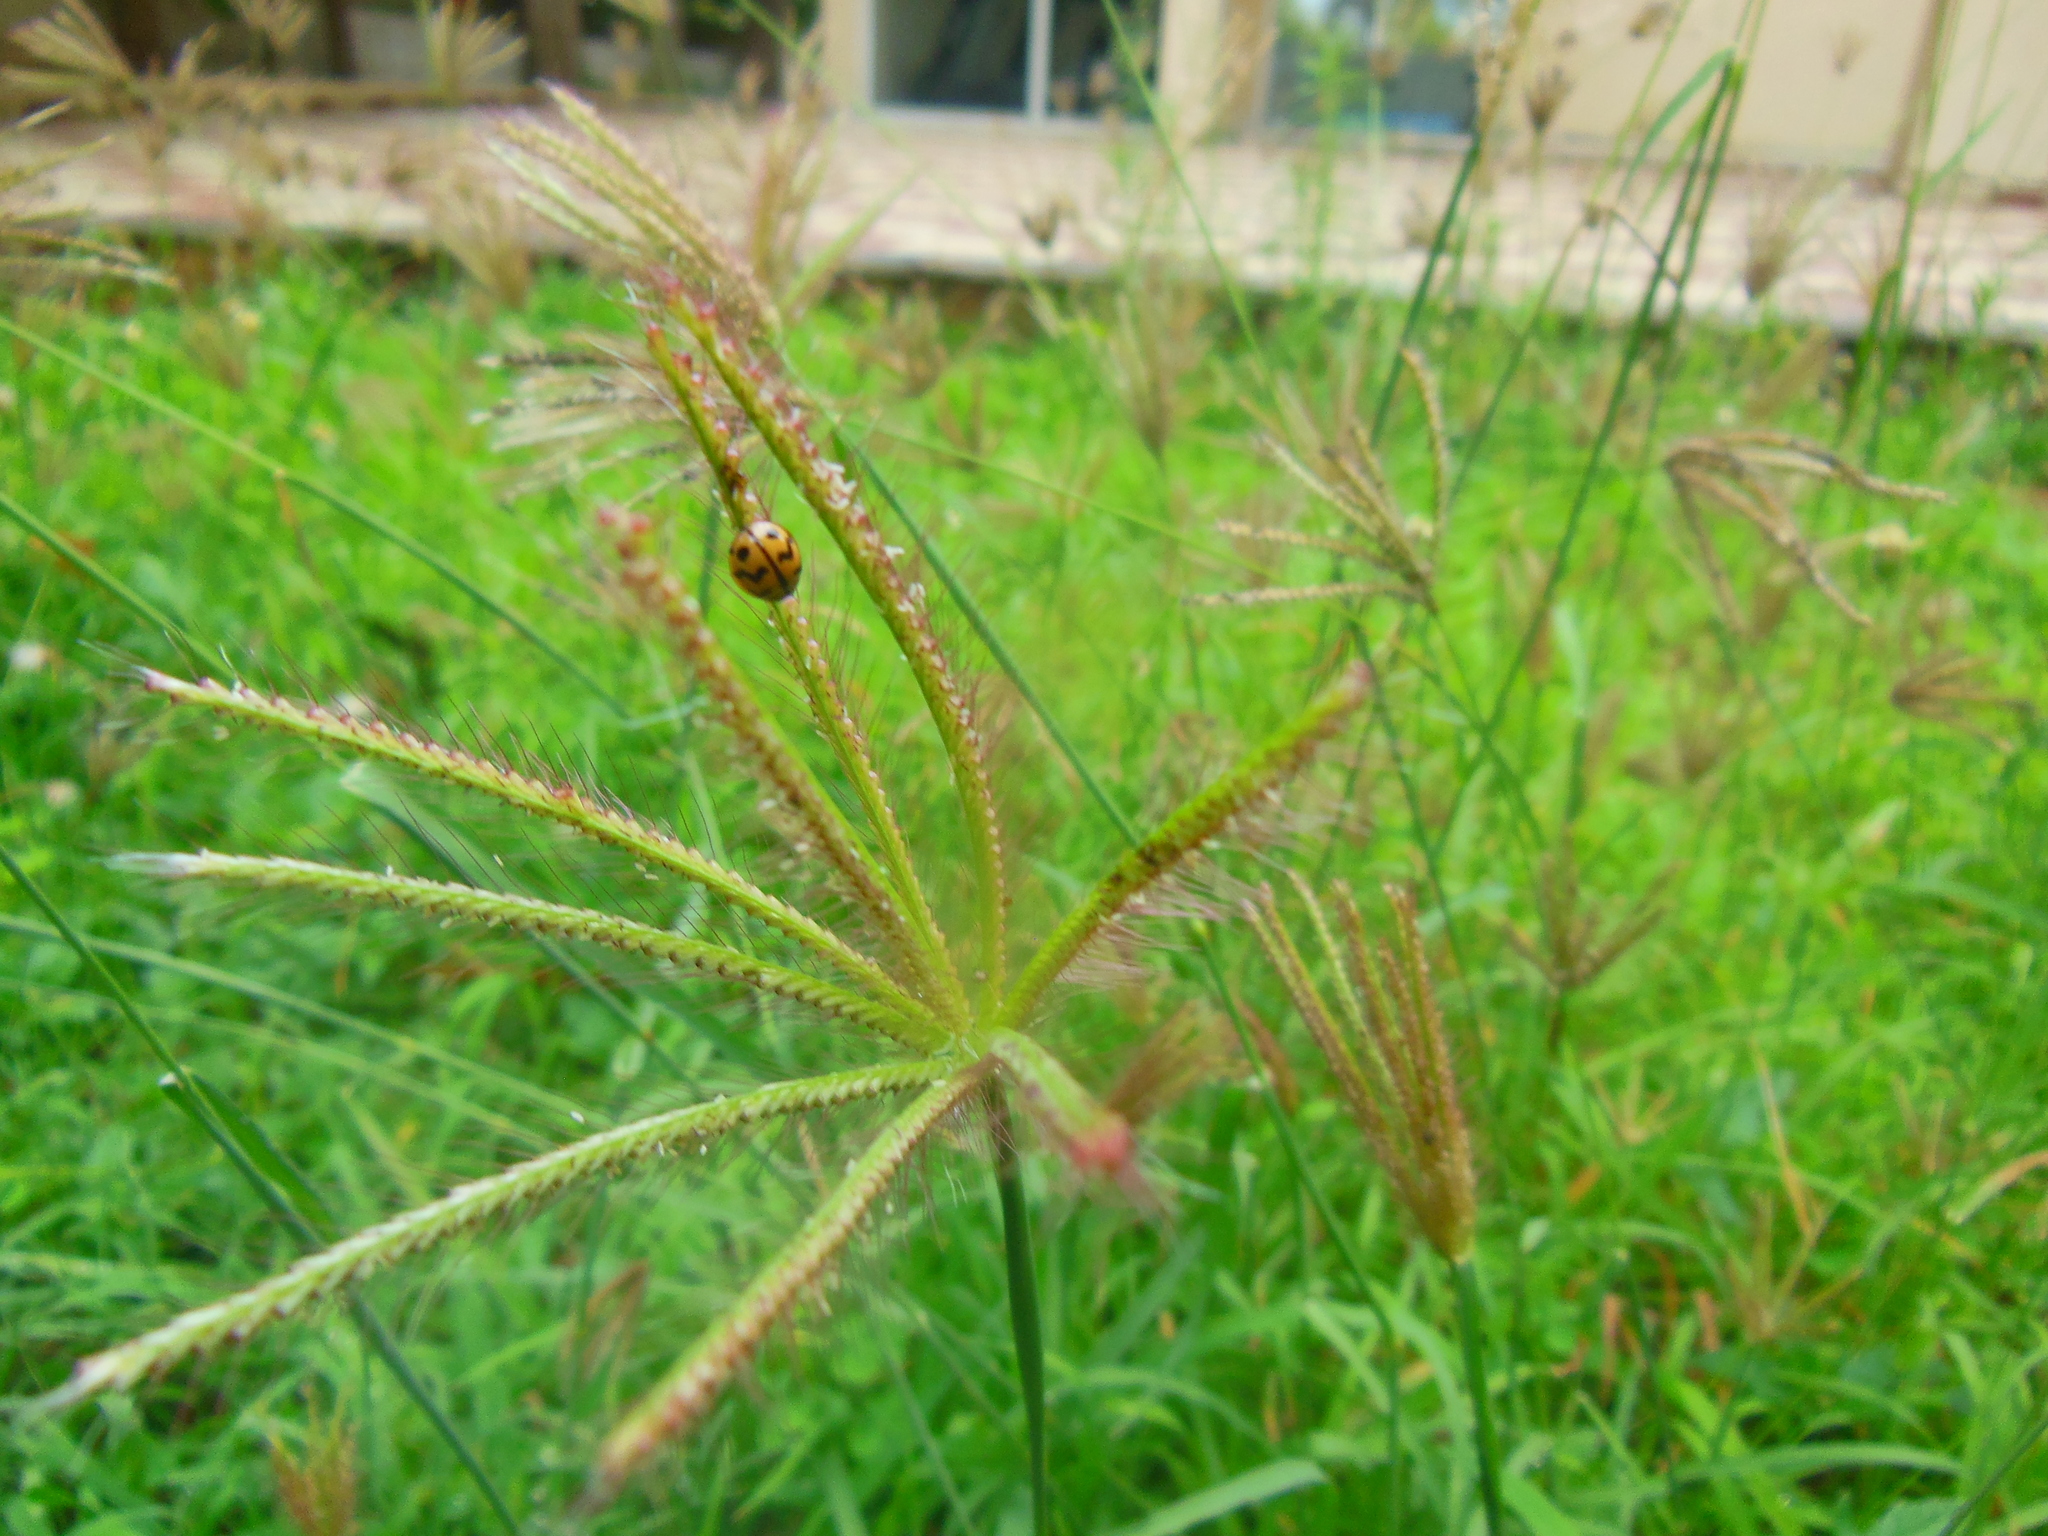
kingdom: Animalia
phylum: Arthropoda
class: Insecta
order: Coleoptera
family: Coccinellidae
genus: Cheilomenes
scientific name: Cheilomenes sexmaculata
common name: Ladybird beetle
